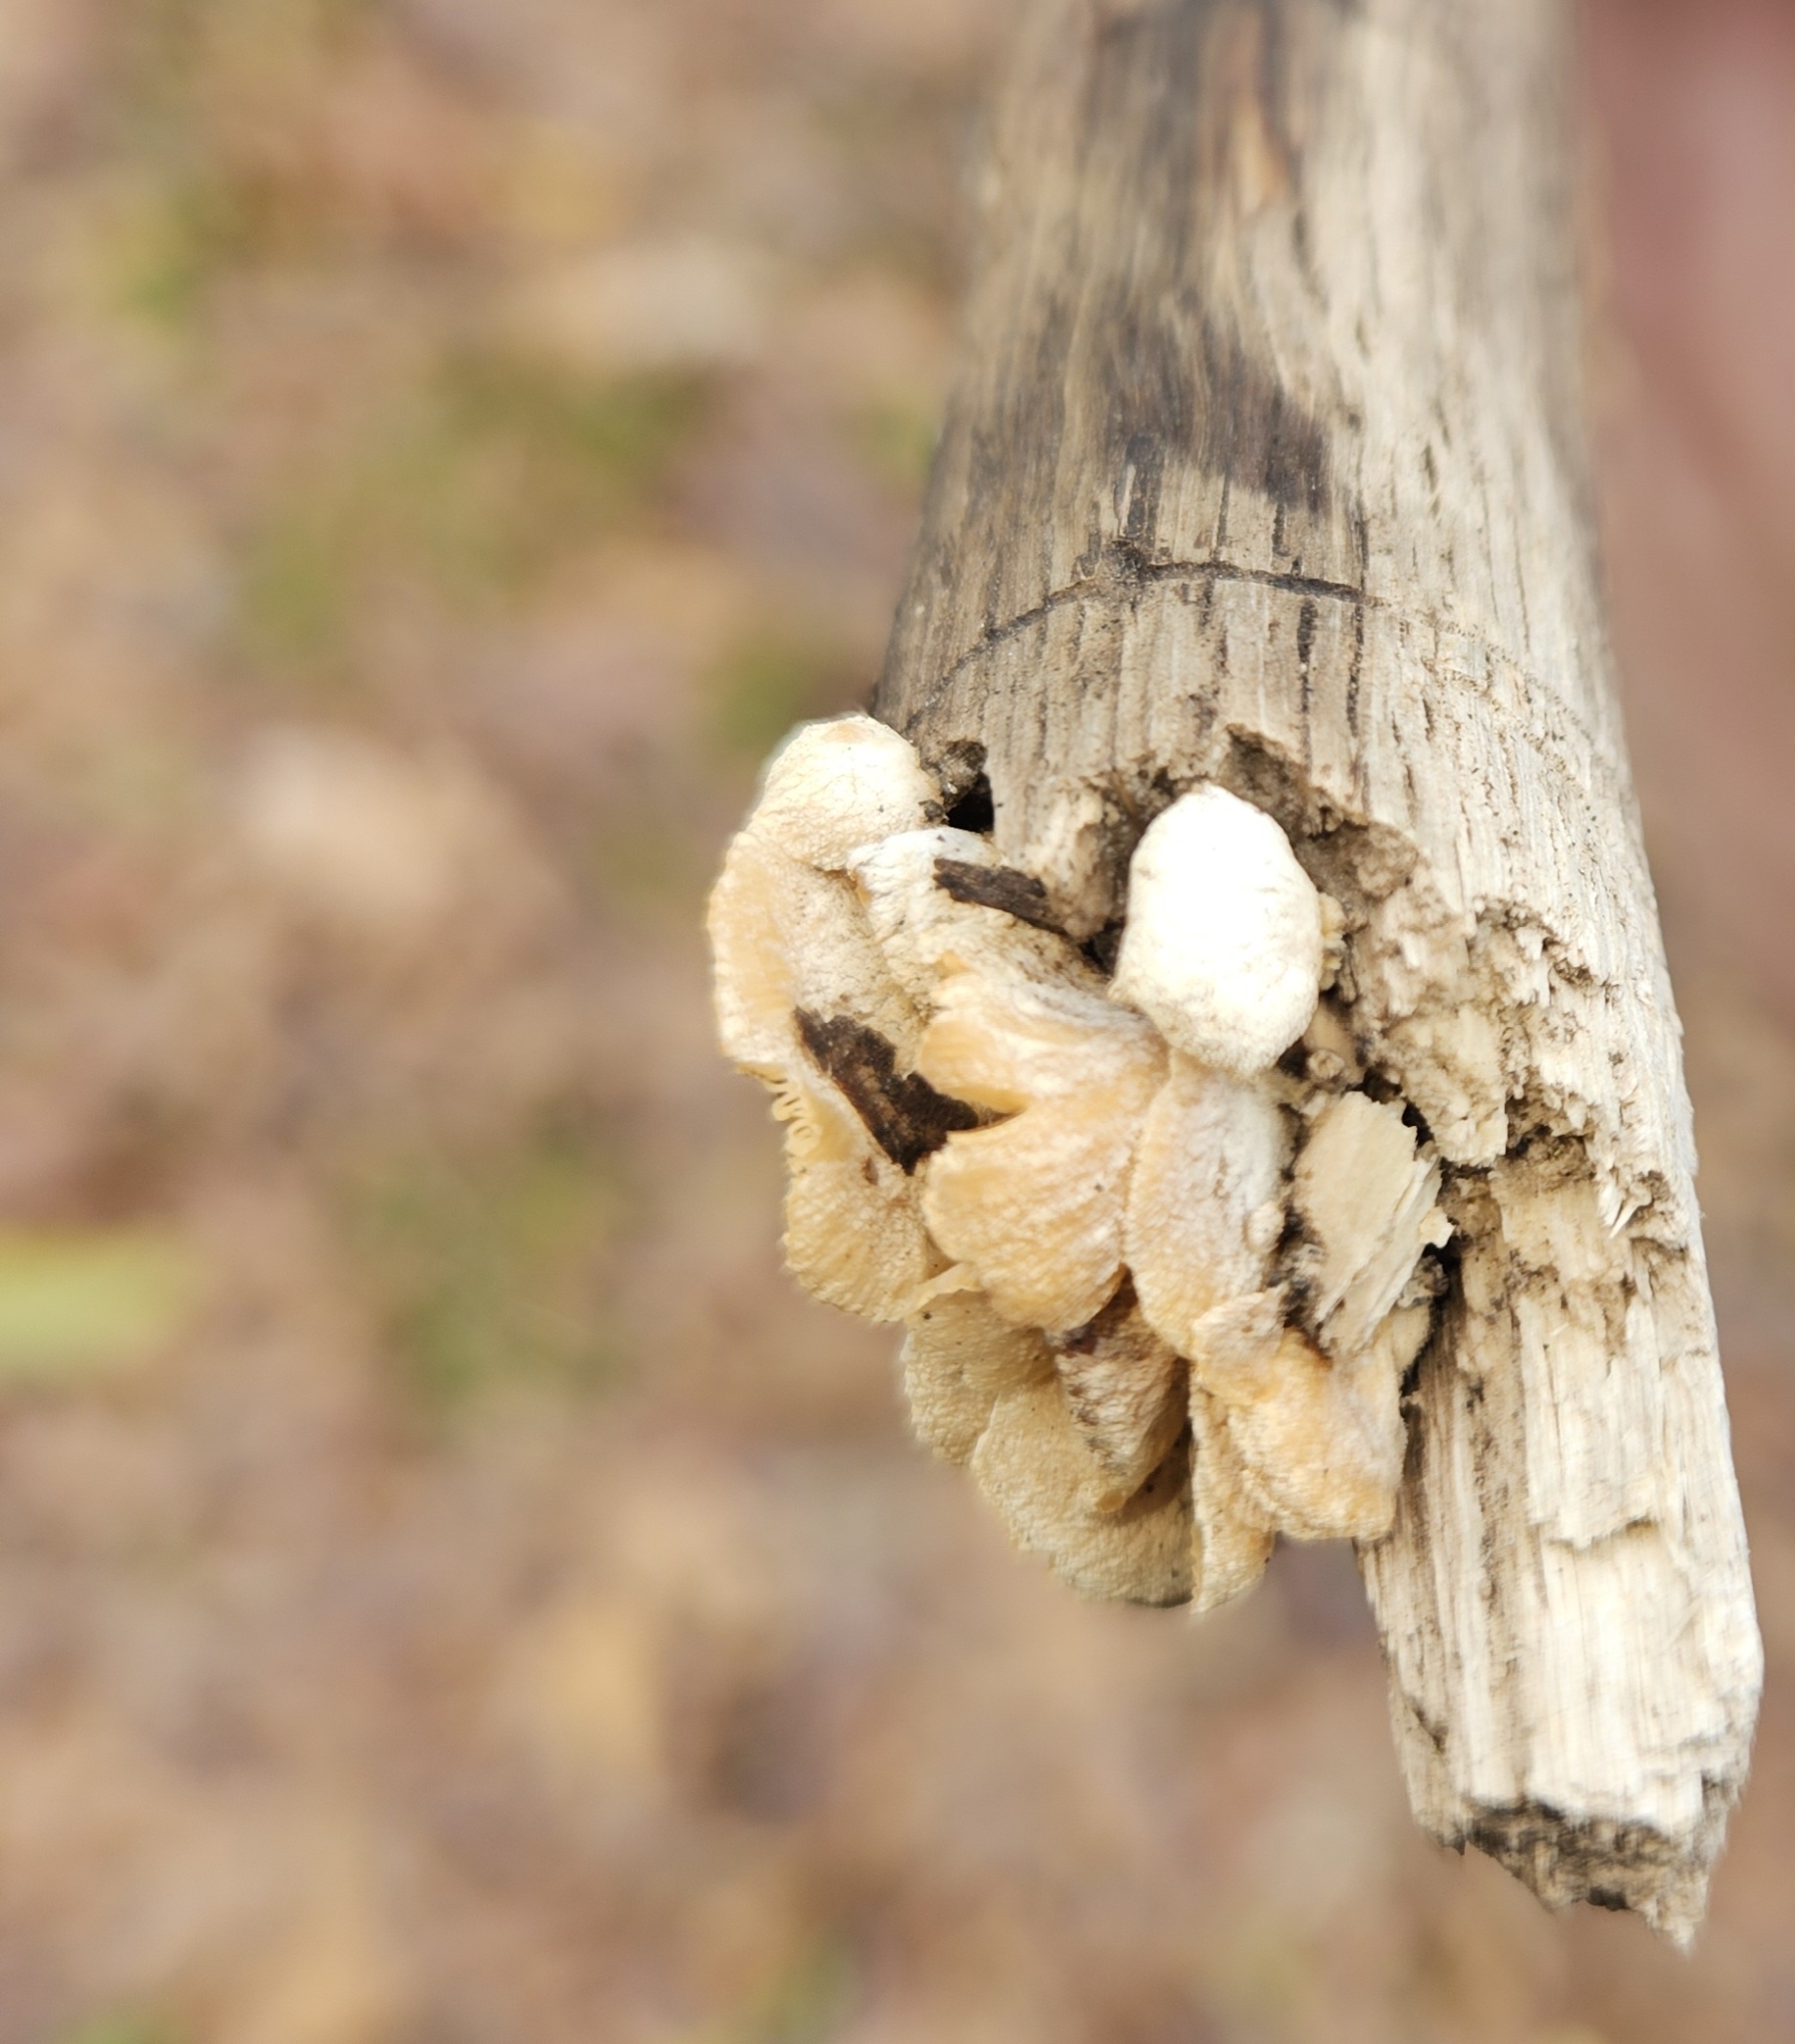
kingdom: Fungi
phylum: Basidiomycota
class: Agaricomycetes
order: Agaricales
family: Mycenaceae
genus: Panellus
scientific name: Panellus stipticus
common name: Bitter oysterling
